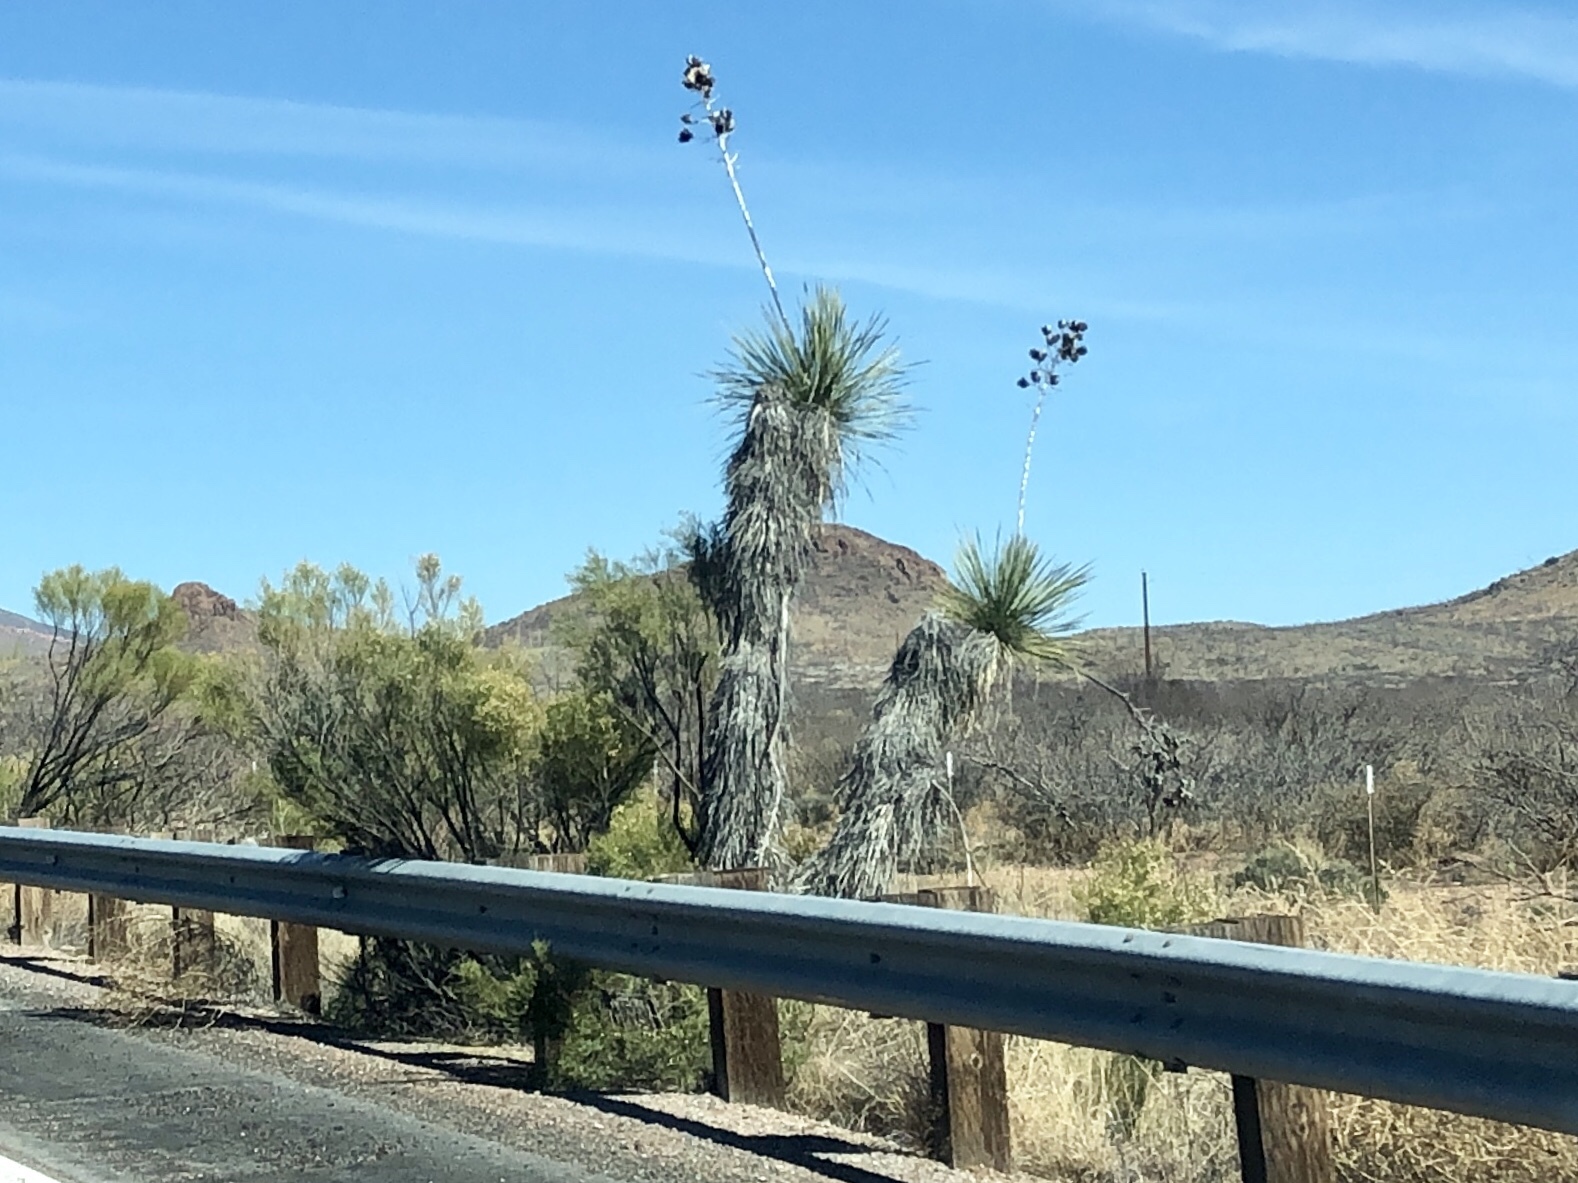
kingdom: Plantae
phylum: Tracheophyta
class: Liliopsida
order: Asparagales
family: Asparagaceae
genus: Yucca
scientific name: Yucca elata
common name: Palmella
